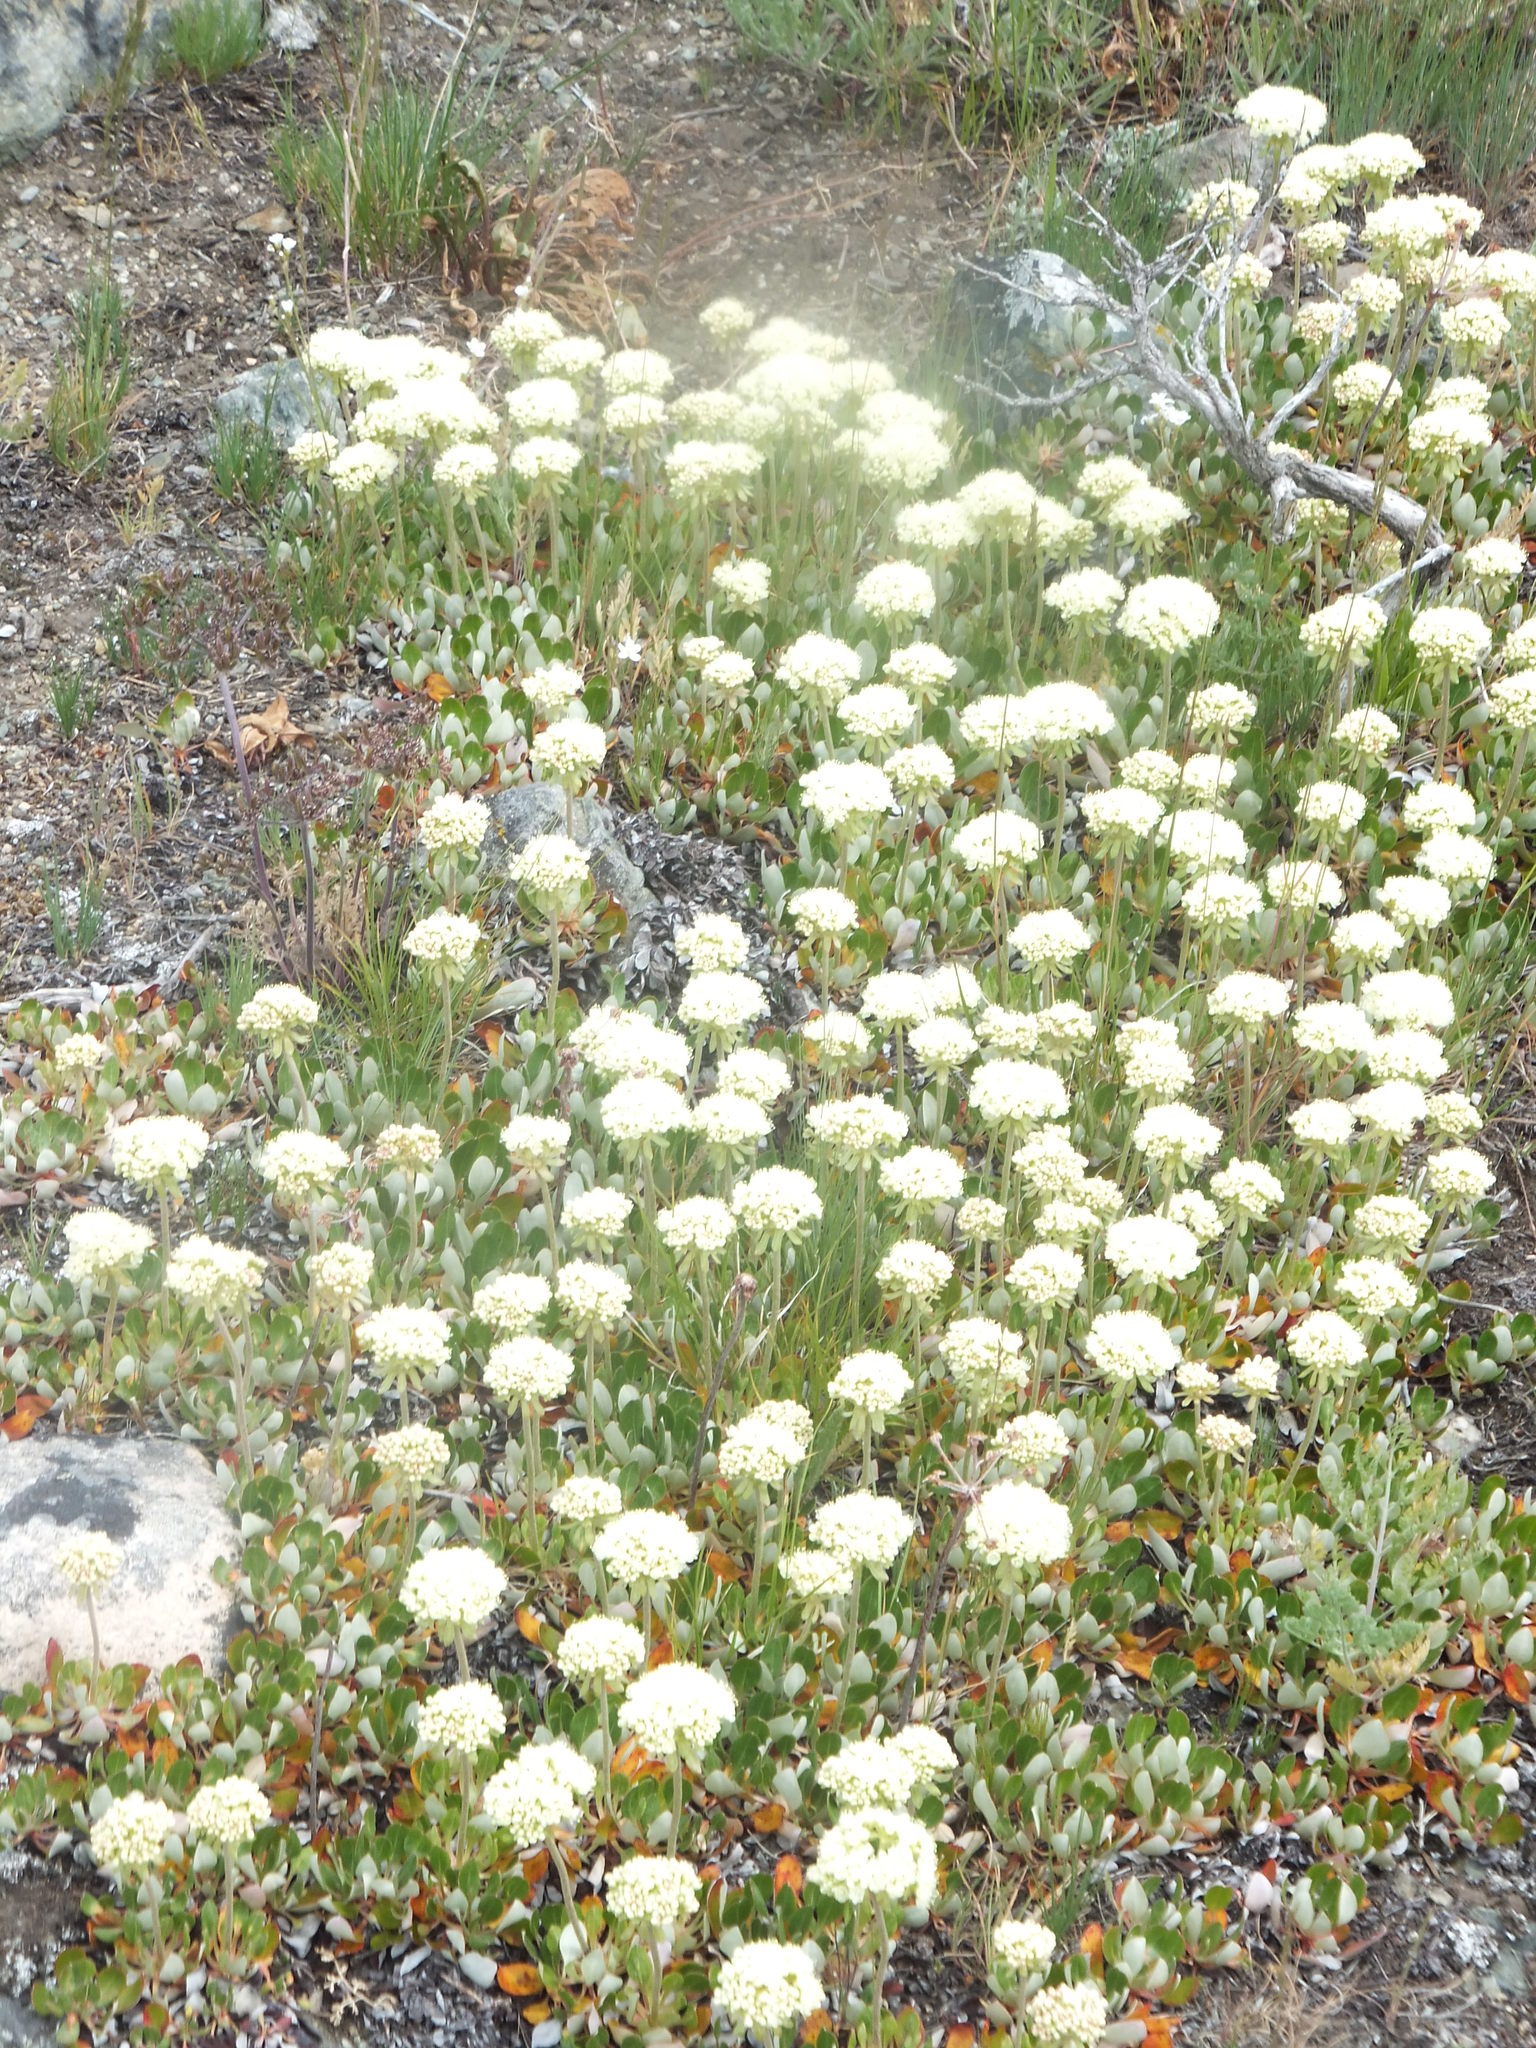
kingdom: Plantae
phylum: Tracheophyta
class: Magnoliopsida
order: Caryophyllales
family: Polygonaceae
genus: Eriogonum
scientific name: Eriogonum umbellatum
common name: Sulfur-buckwheat
